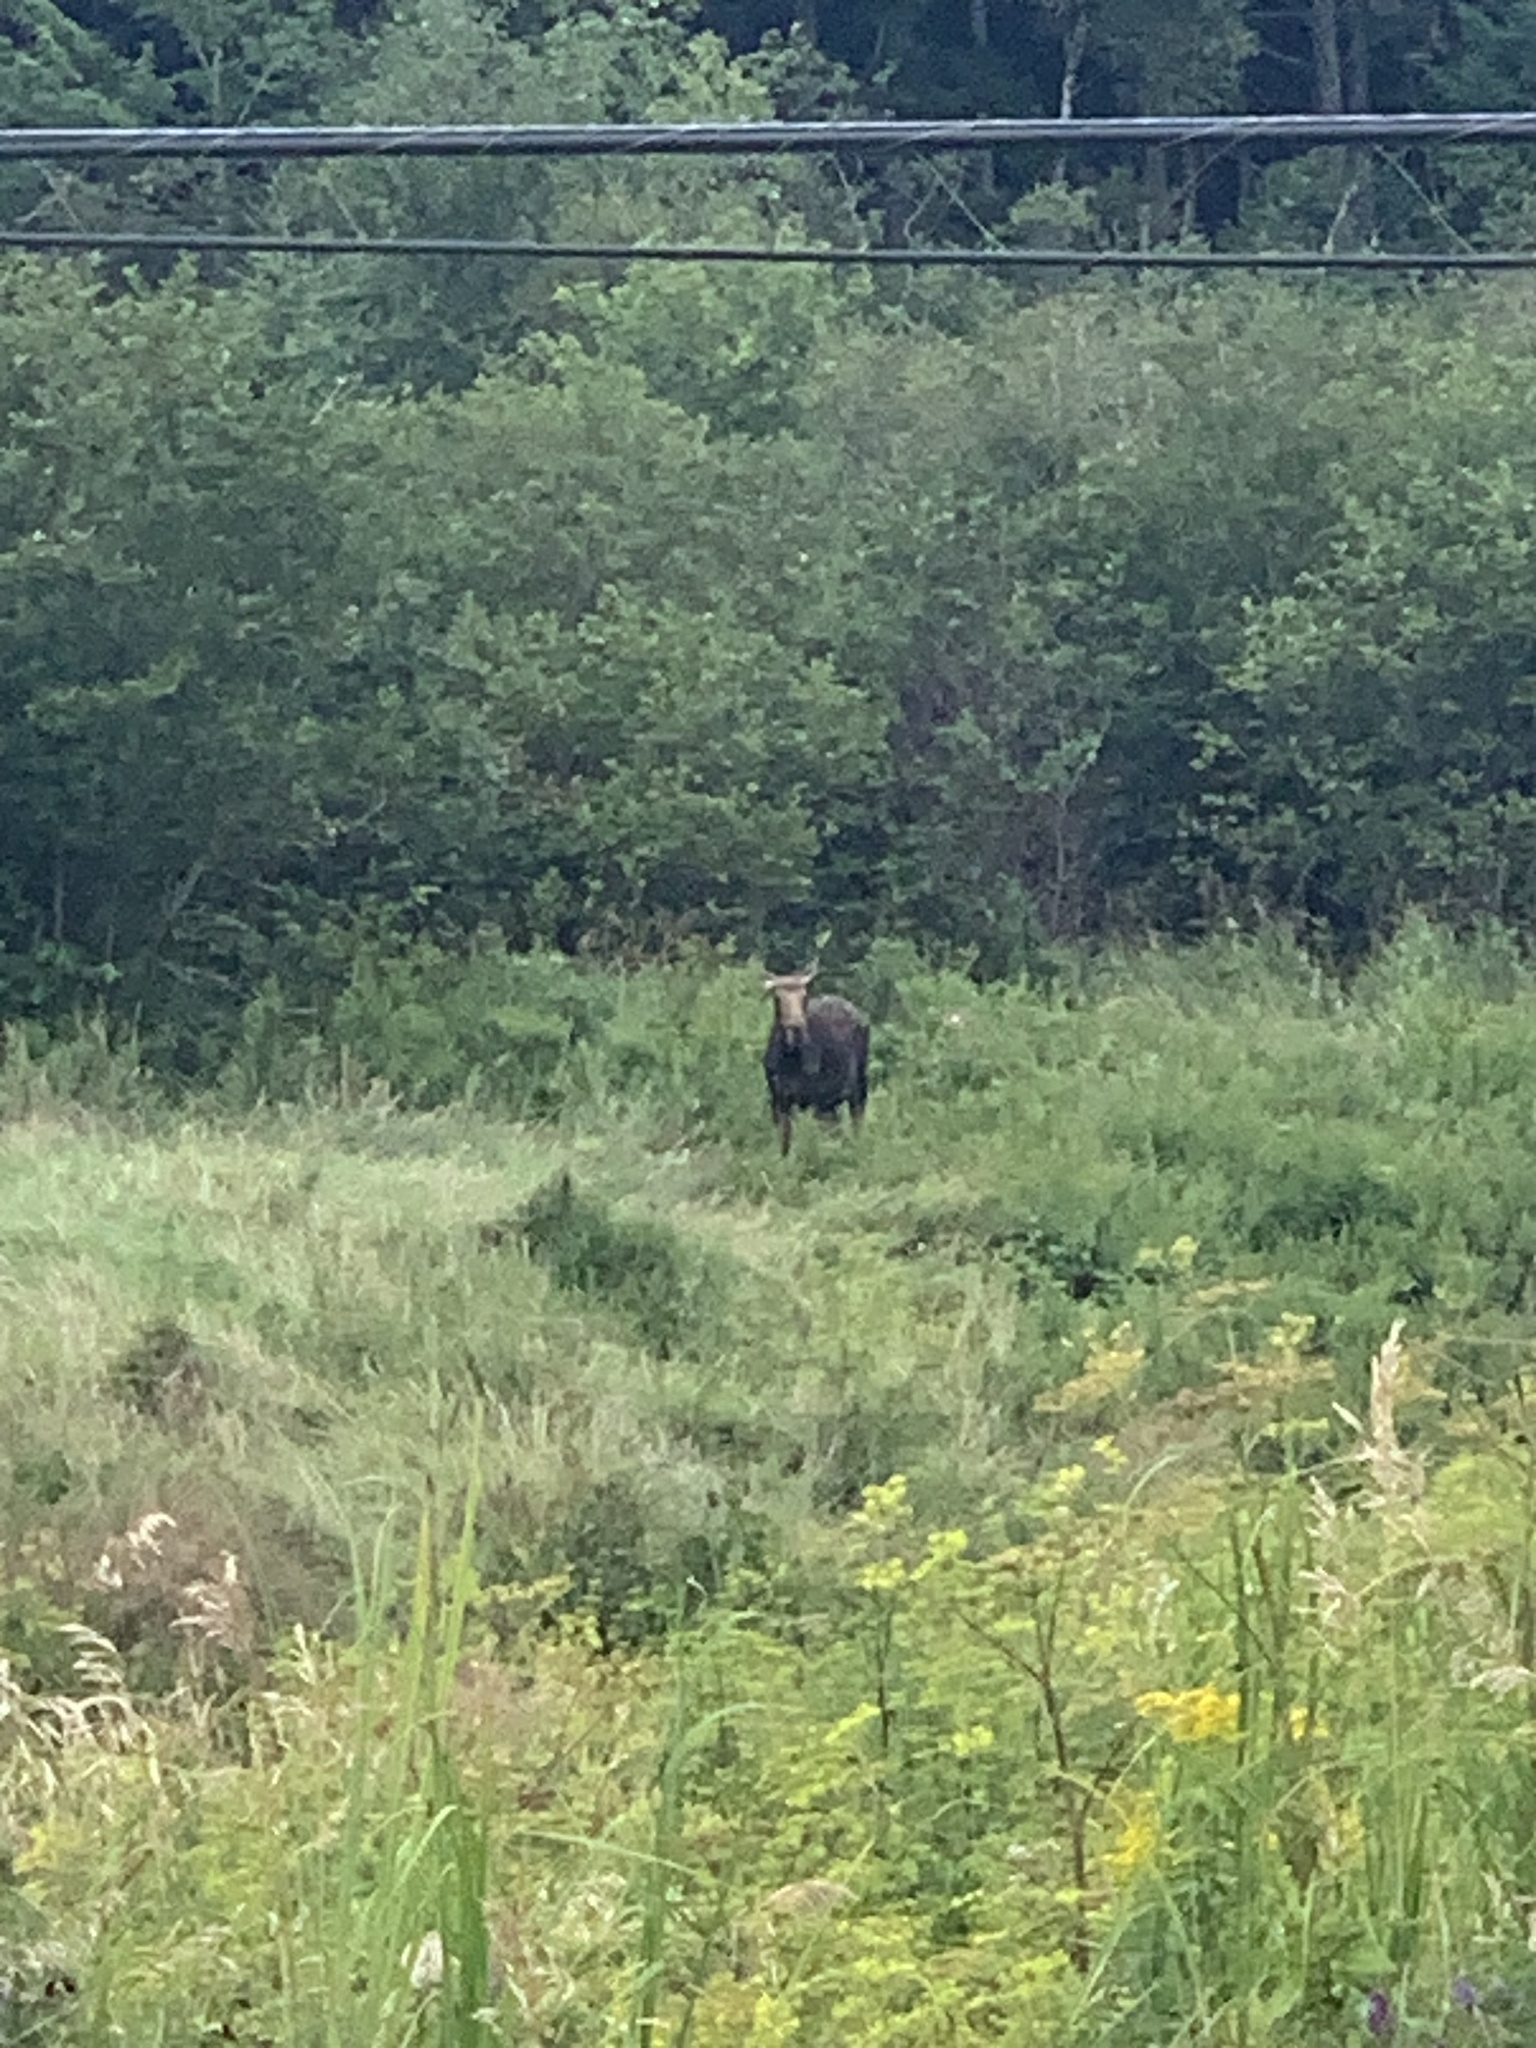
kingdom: Animalia
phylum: Chordata
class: Mammalia
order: Artiodactyla
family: Cervidae
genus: Alces
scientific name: Alces alces
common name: Moose
